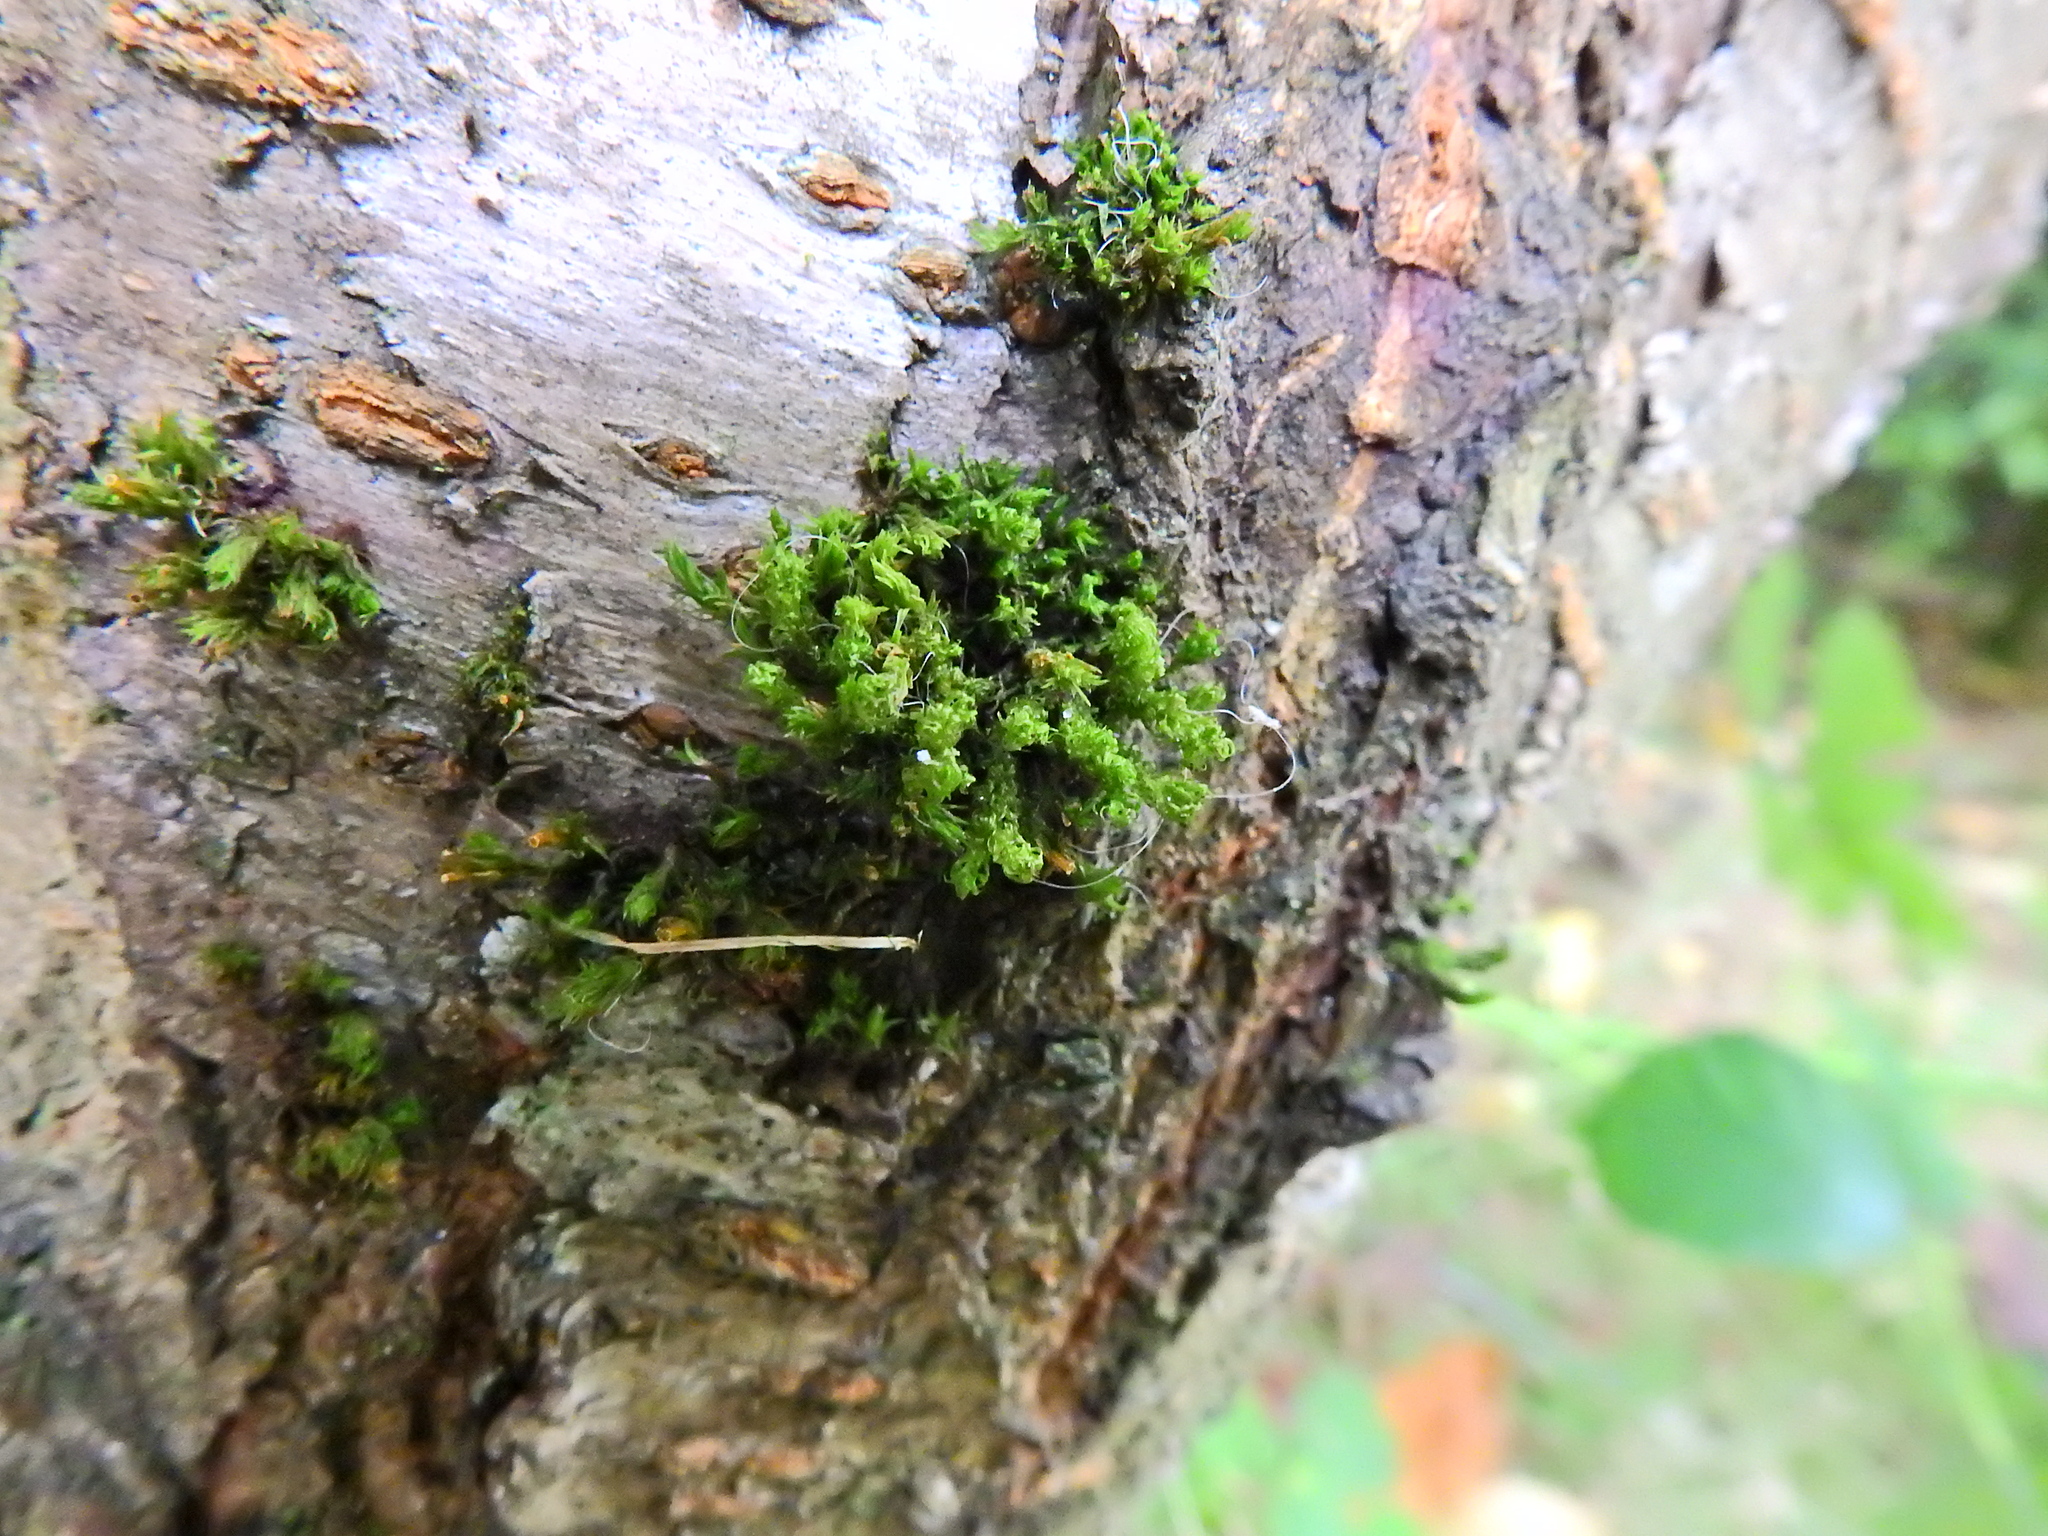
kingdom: Plantae
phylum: Bryophyta
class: Bryopsida
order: Orthotrichales
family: Orthotrichaceae
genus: Ulota
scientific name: Ulota
